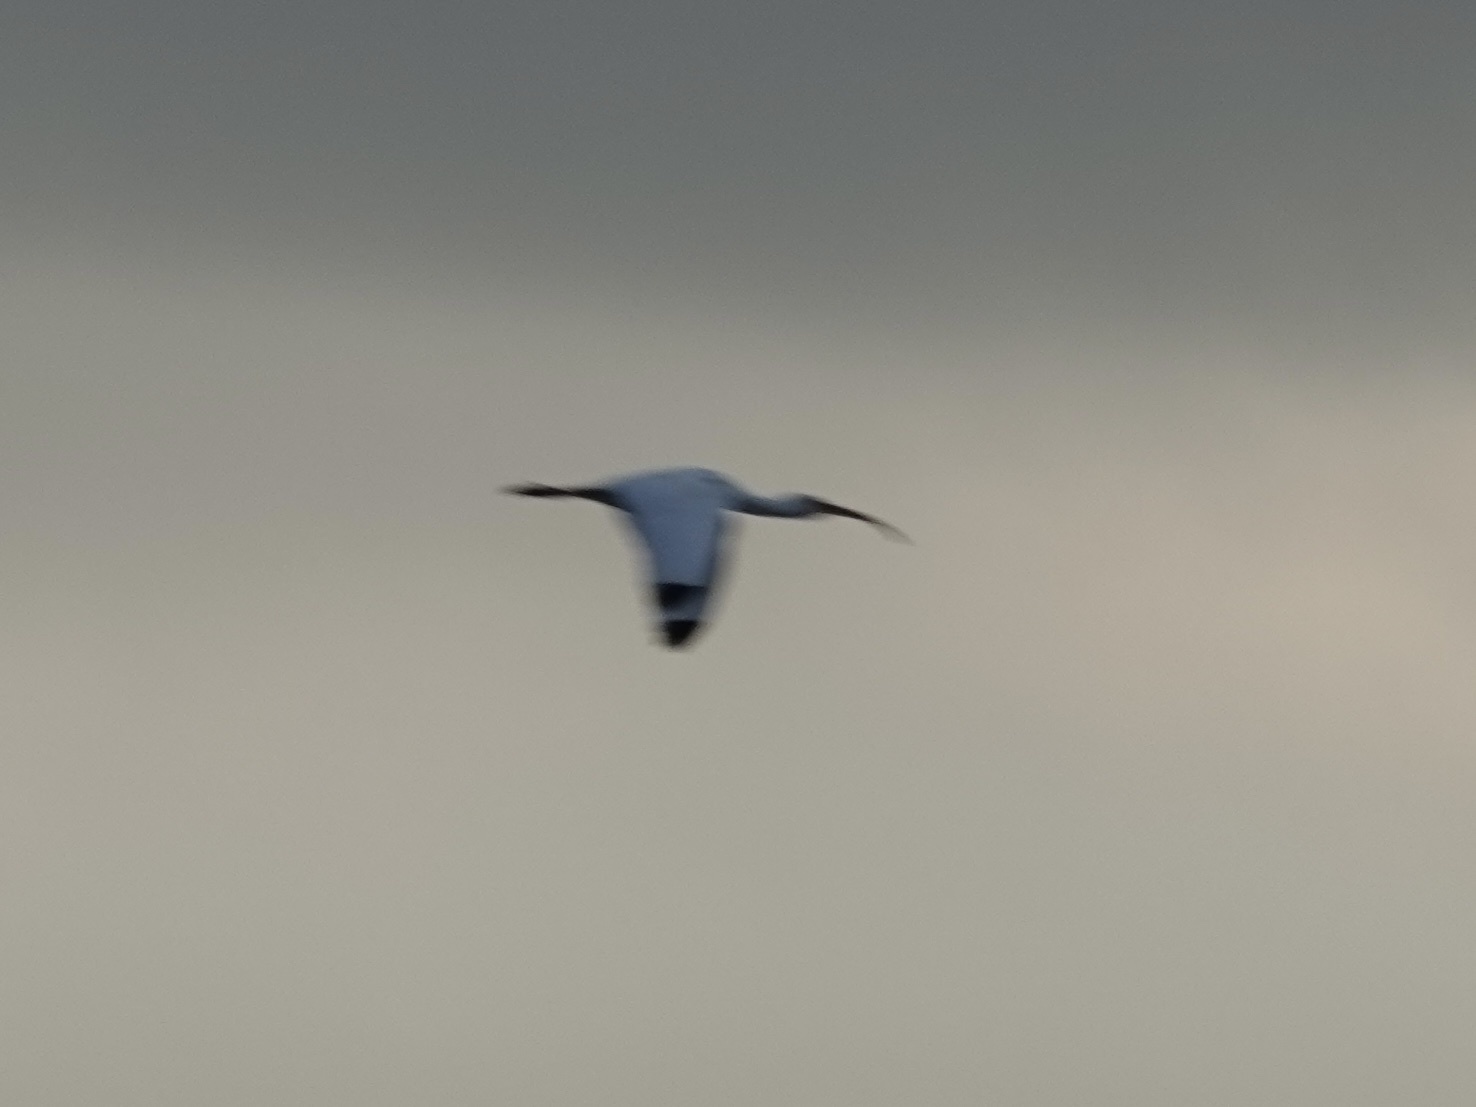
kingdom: Animalia
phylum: Chordata
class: Aves
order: Pelecaniformes
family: Threskiornithidae
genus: Eudocimus
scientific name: Eudocimus albus
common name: White ibis
